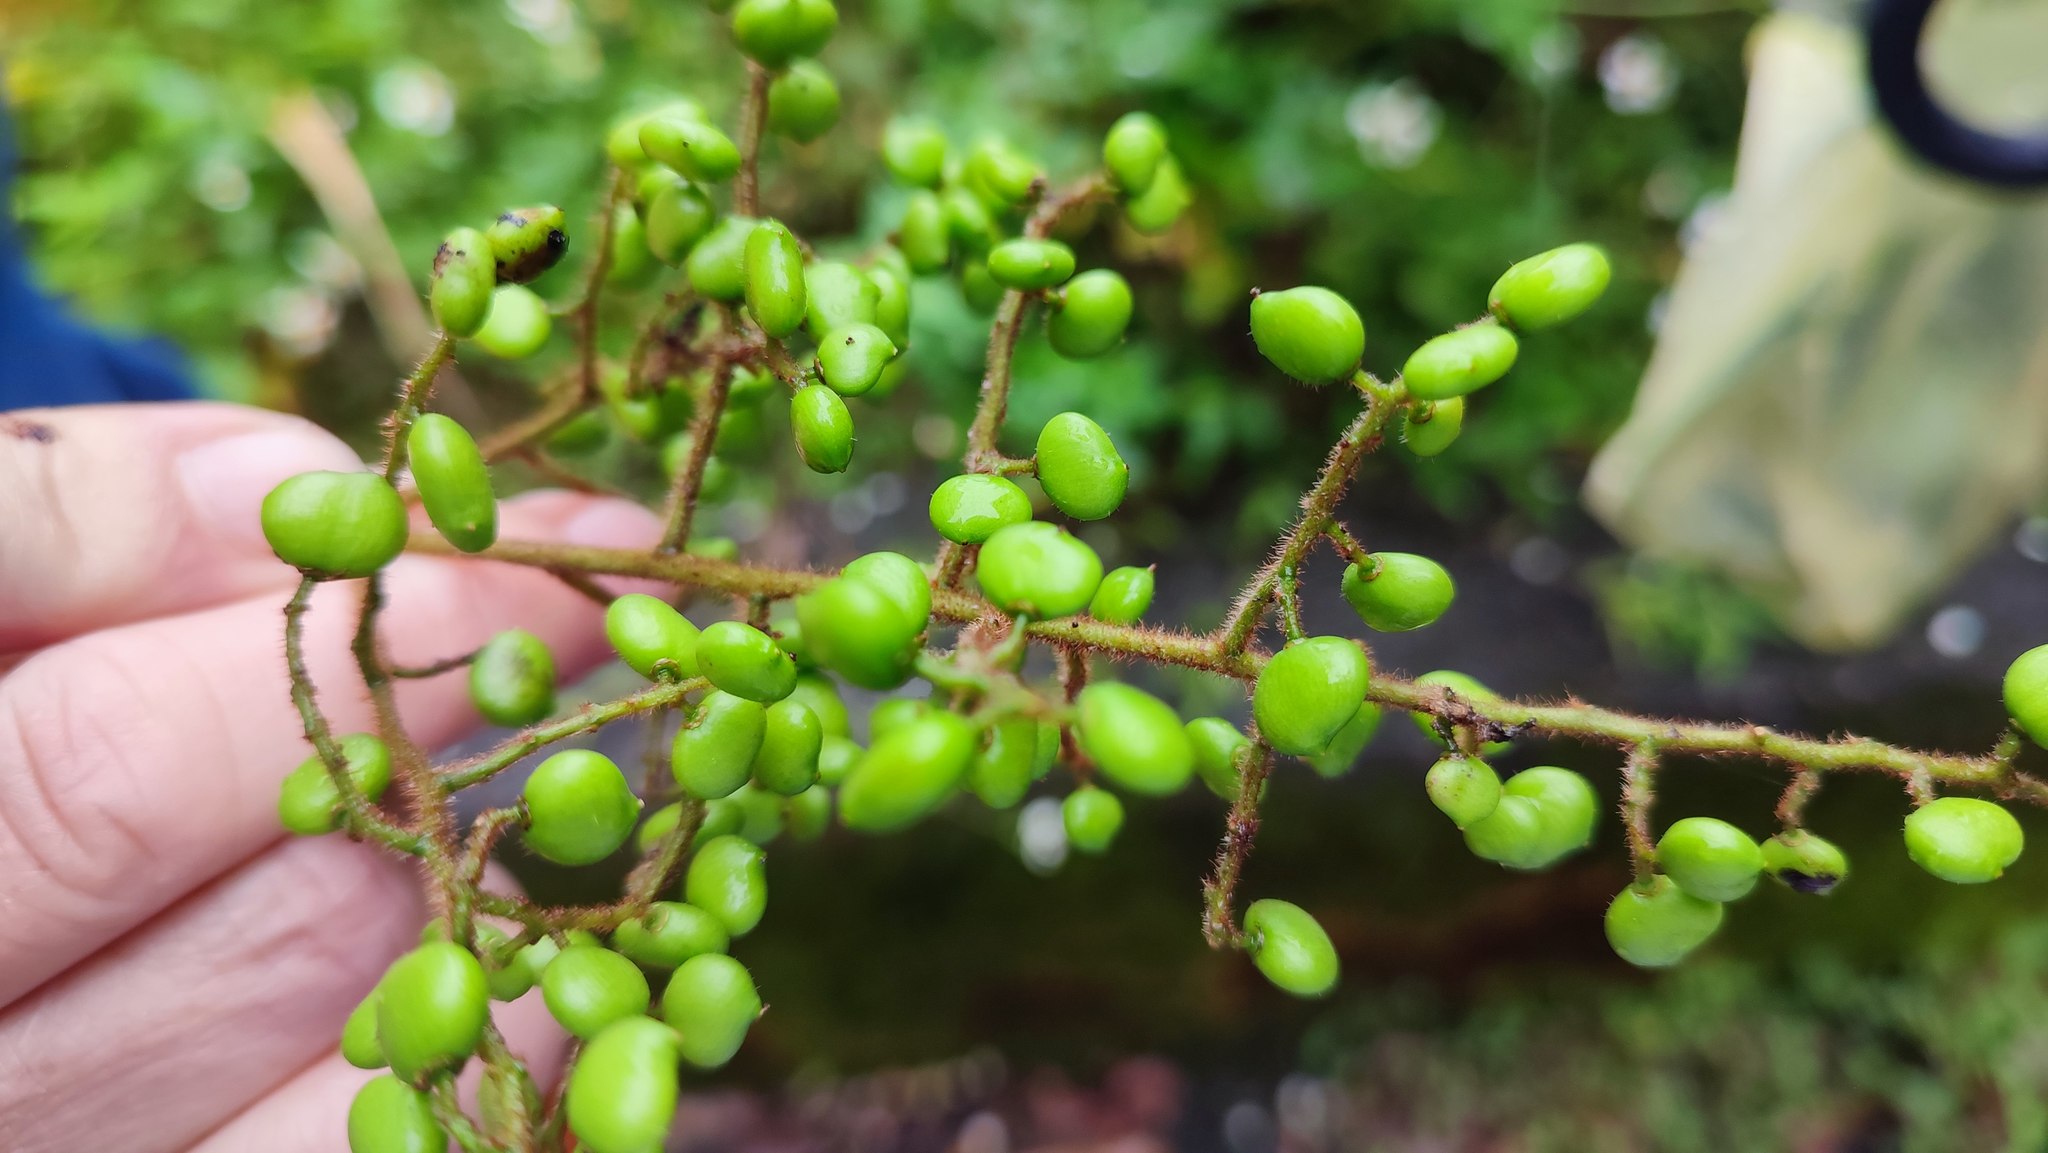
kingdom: Plantae
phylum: Tracheophyta
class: Magnoliopsida
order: Sapindales
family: Anacardiaceae
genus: Toxicodendron
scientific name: Toxicodendron sylvestre
